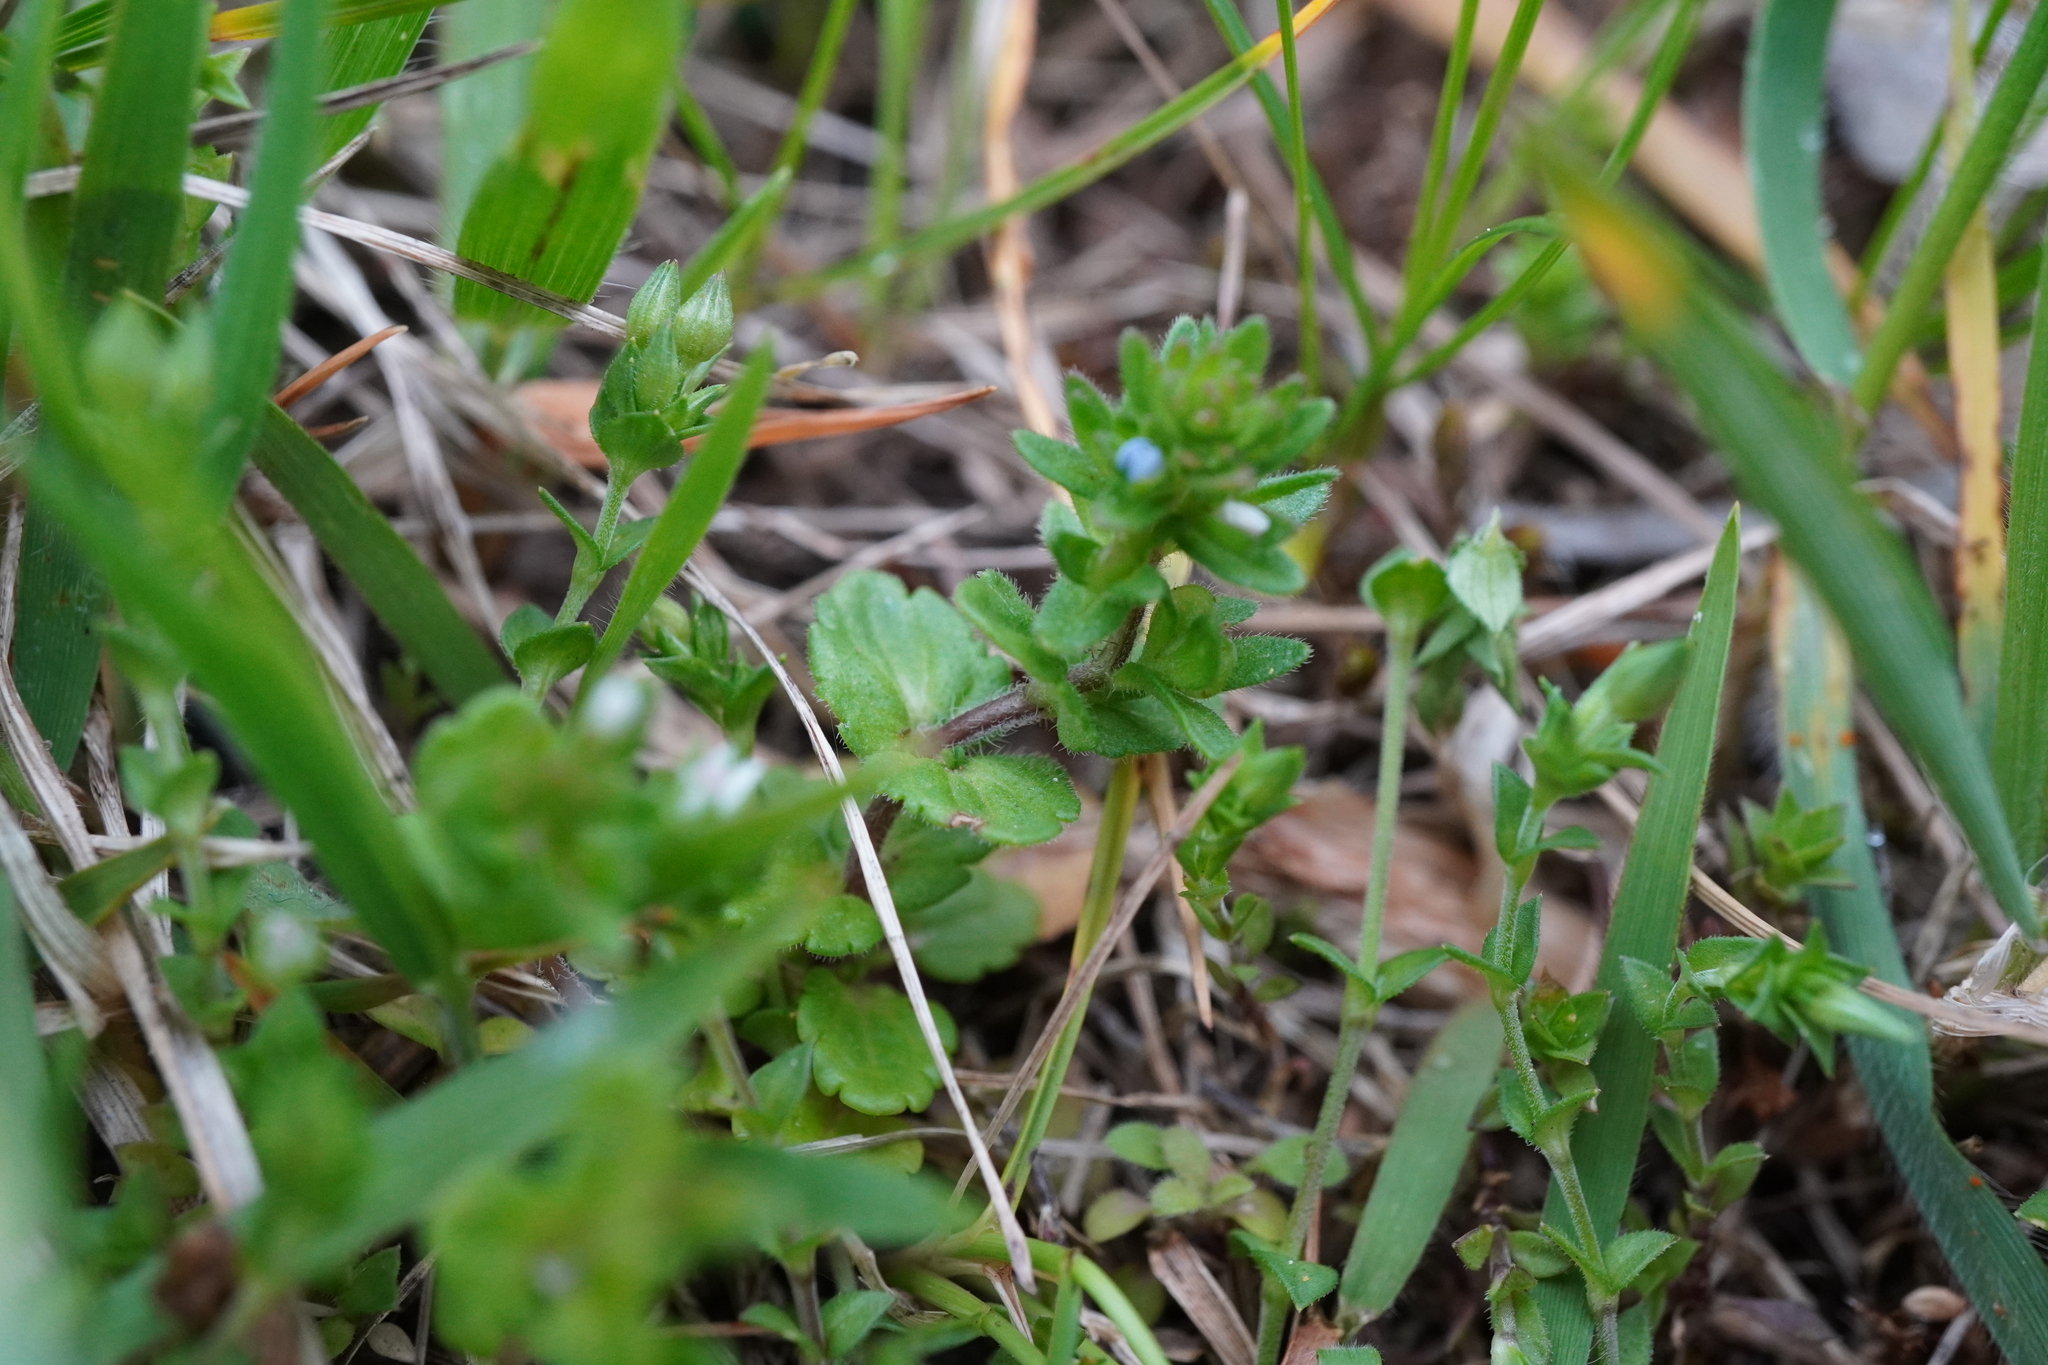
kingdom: Plantae
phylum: Tracheophyta
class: Magnoliopsida
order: Lamiales
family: Plantaginaceae
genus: Veronica
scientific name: Veronica arvensis
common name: Corn speedwell
